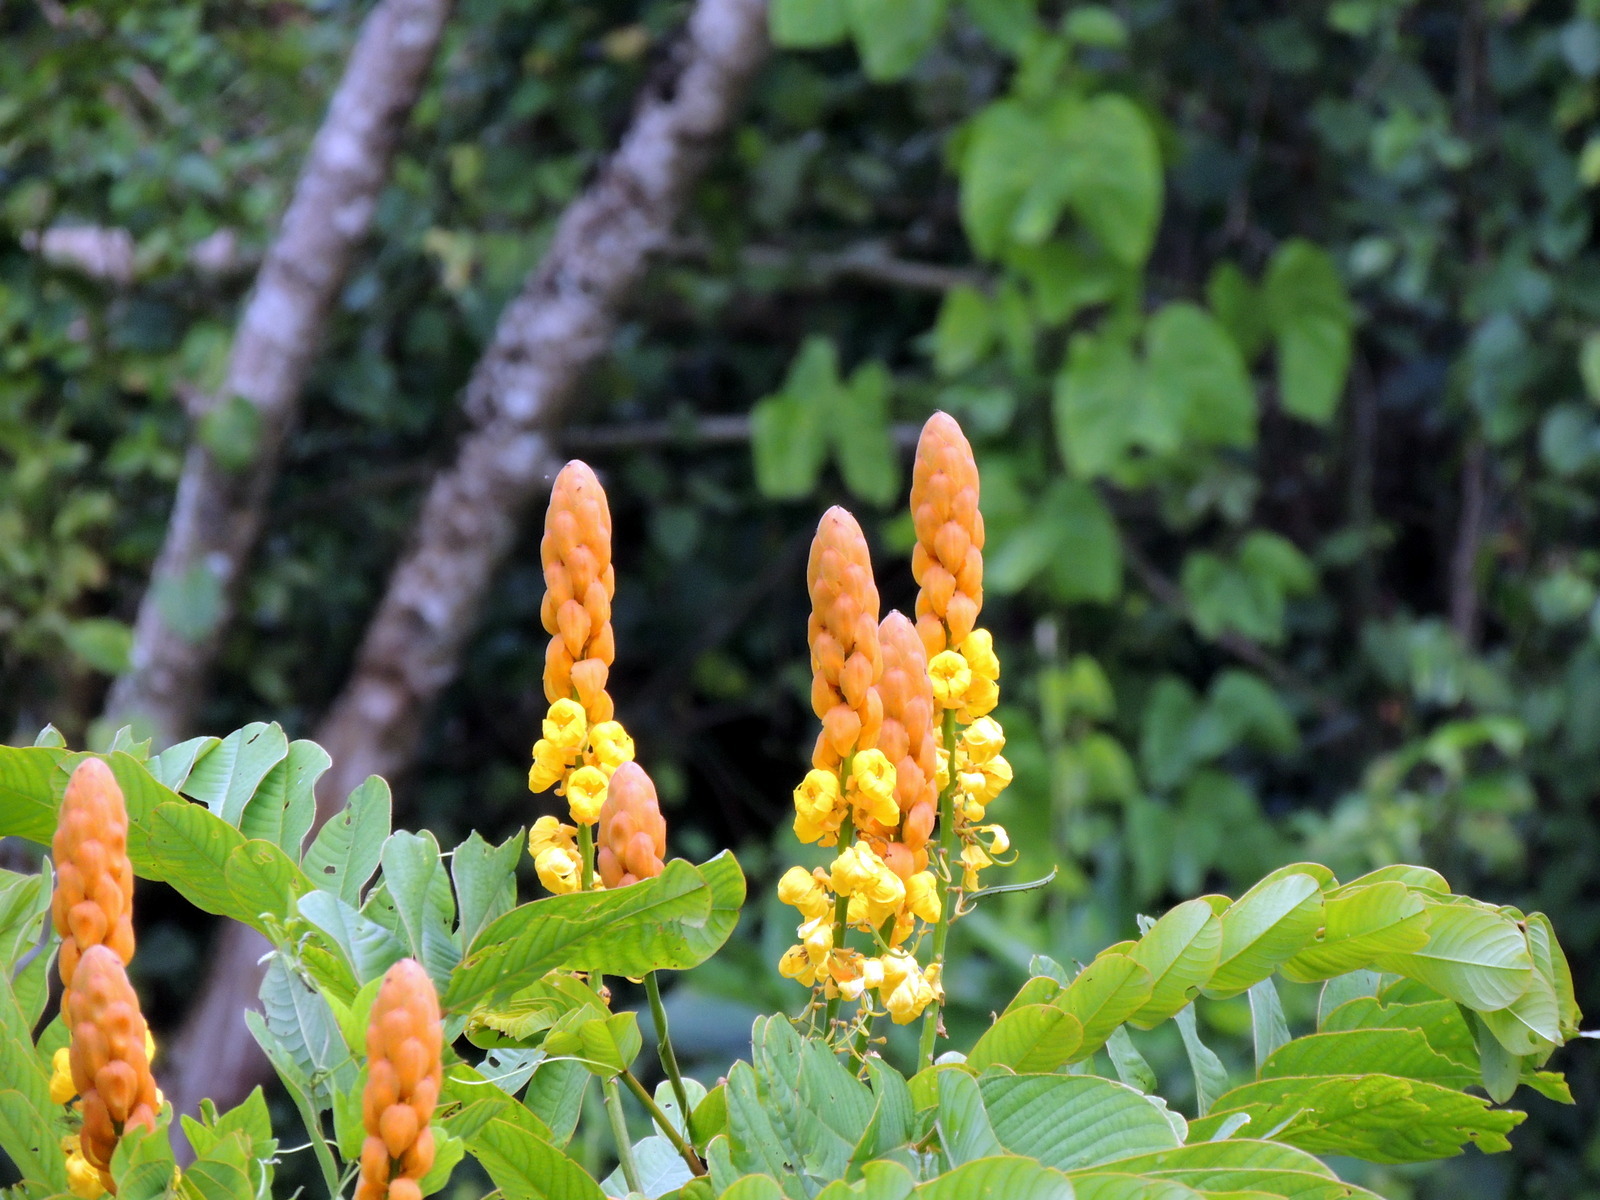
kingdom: Plantae
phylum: Tracheophyta
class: Magnoliopsida
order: Fabales
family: Fabaceae
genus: Senna
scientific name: Senna alata
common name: Emperor's candlesticks
